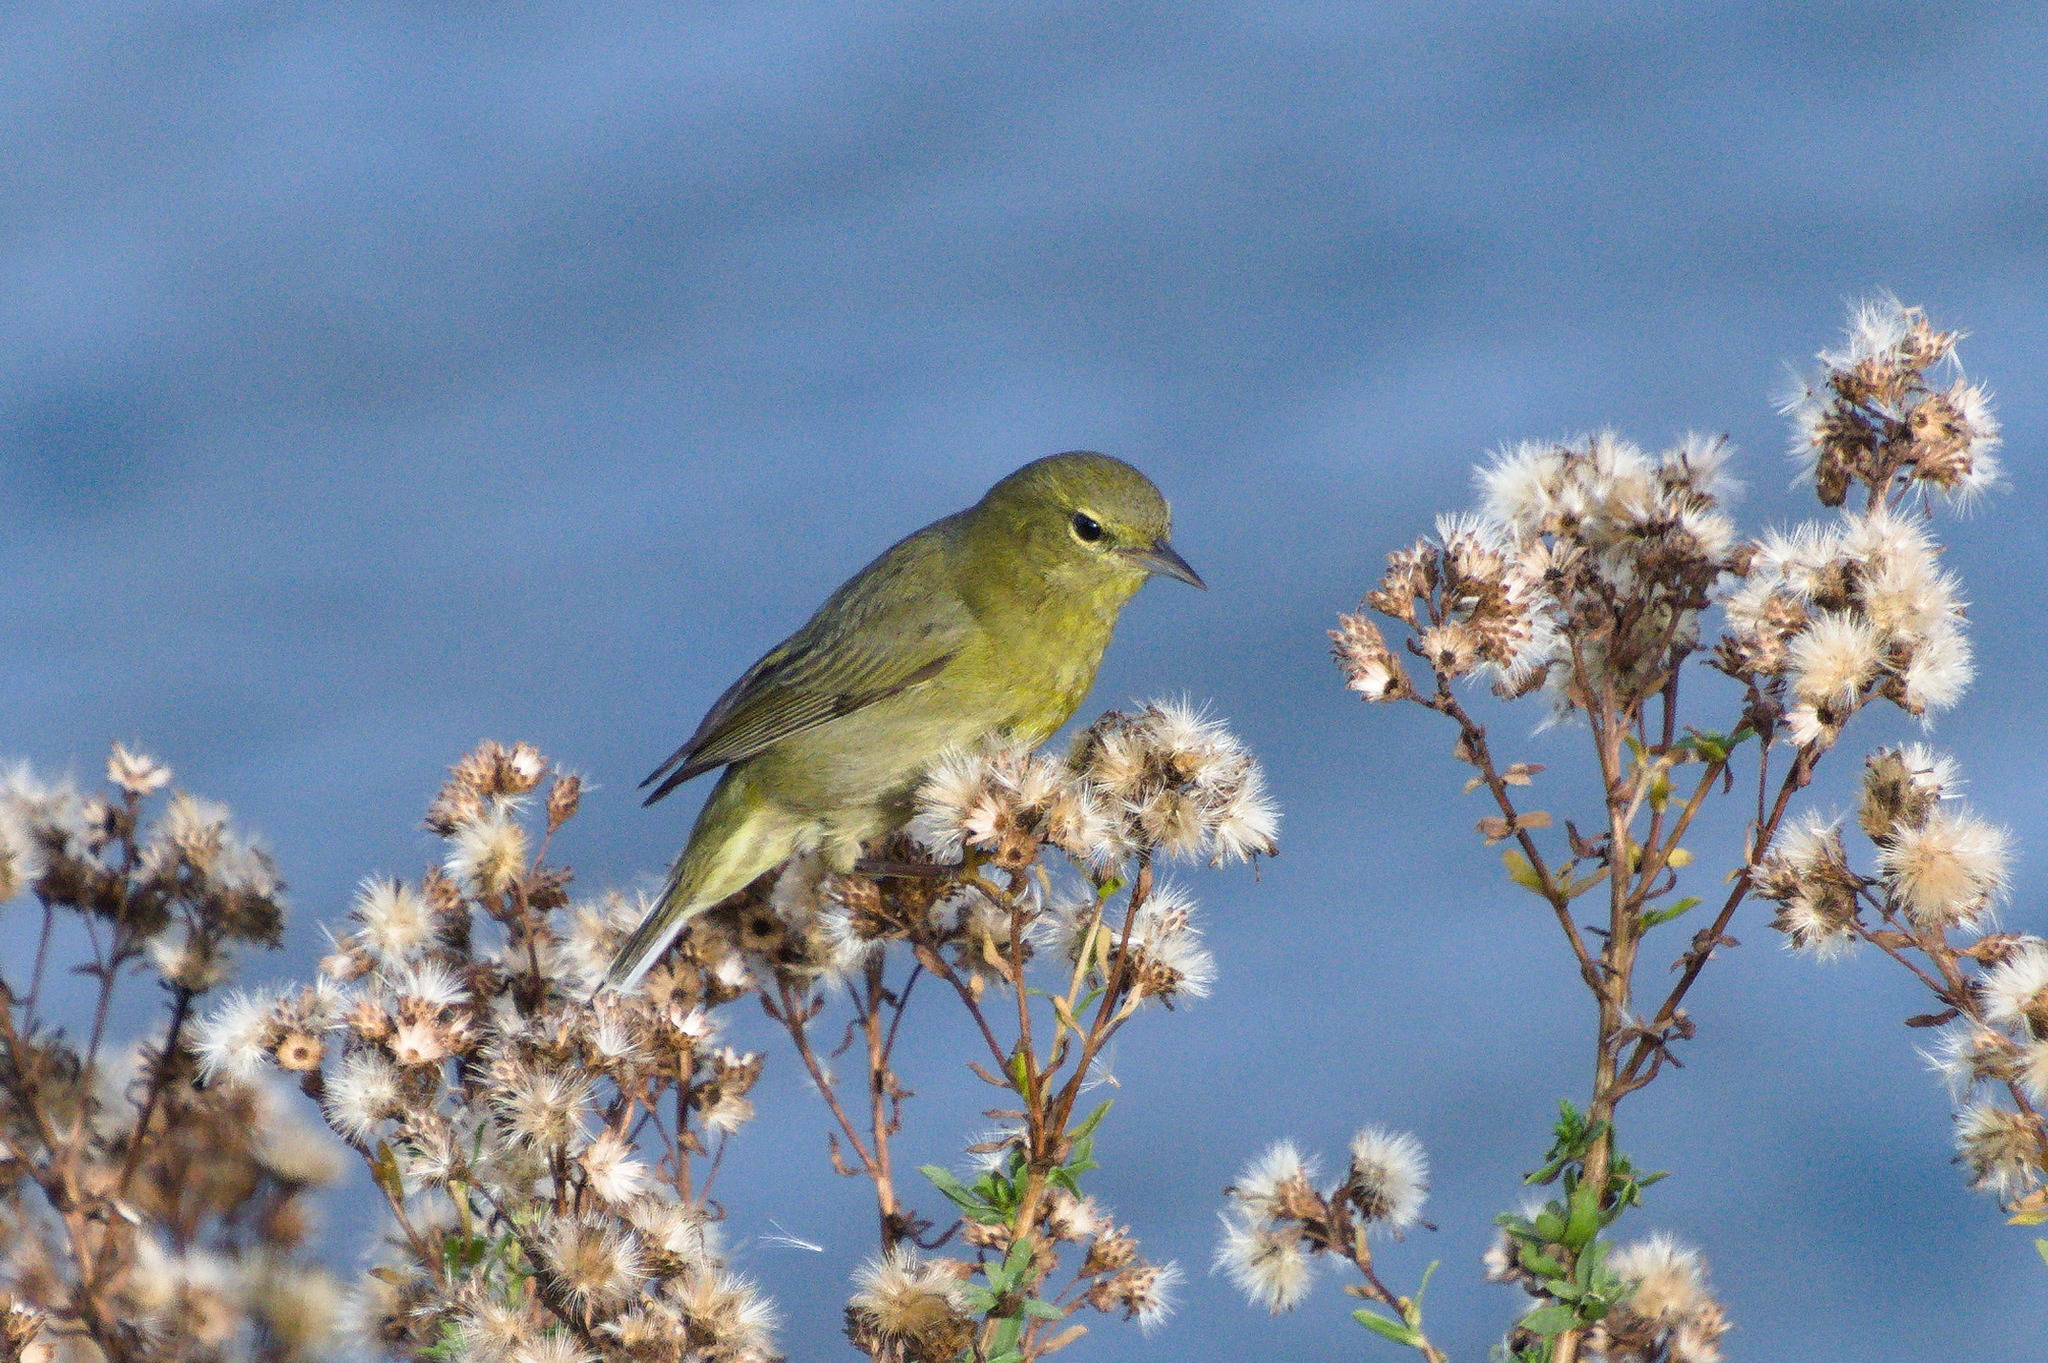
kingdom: Animalia
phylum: Chordata
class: Aves
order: Passeriformes
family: Parulidae
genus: Leiothlypis
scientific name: Leiothlypis celata
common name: Orange-crowned warbler
